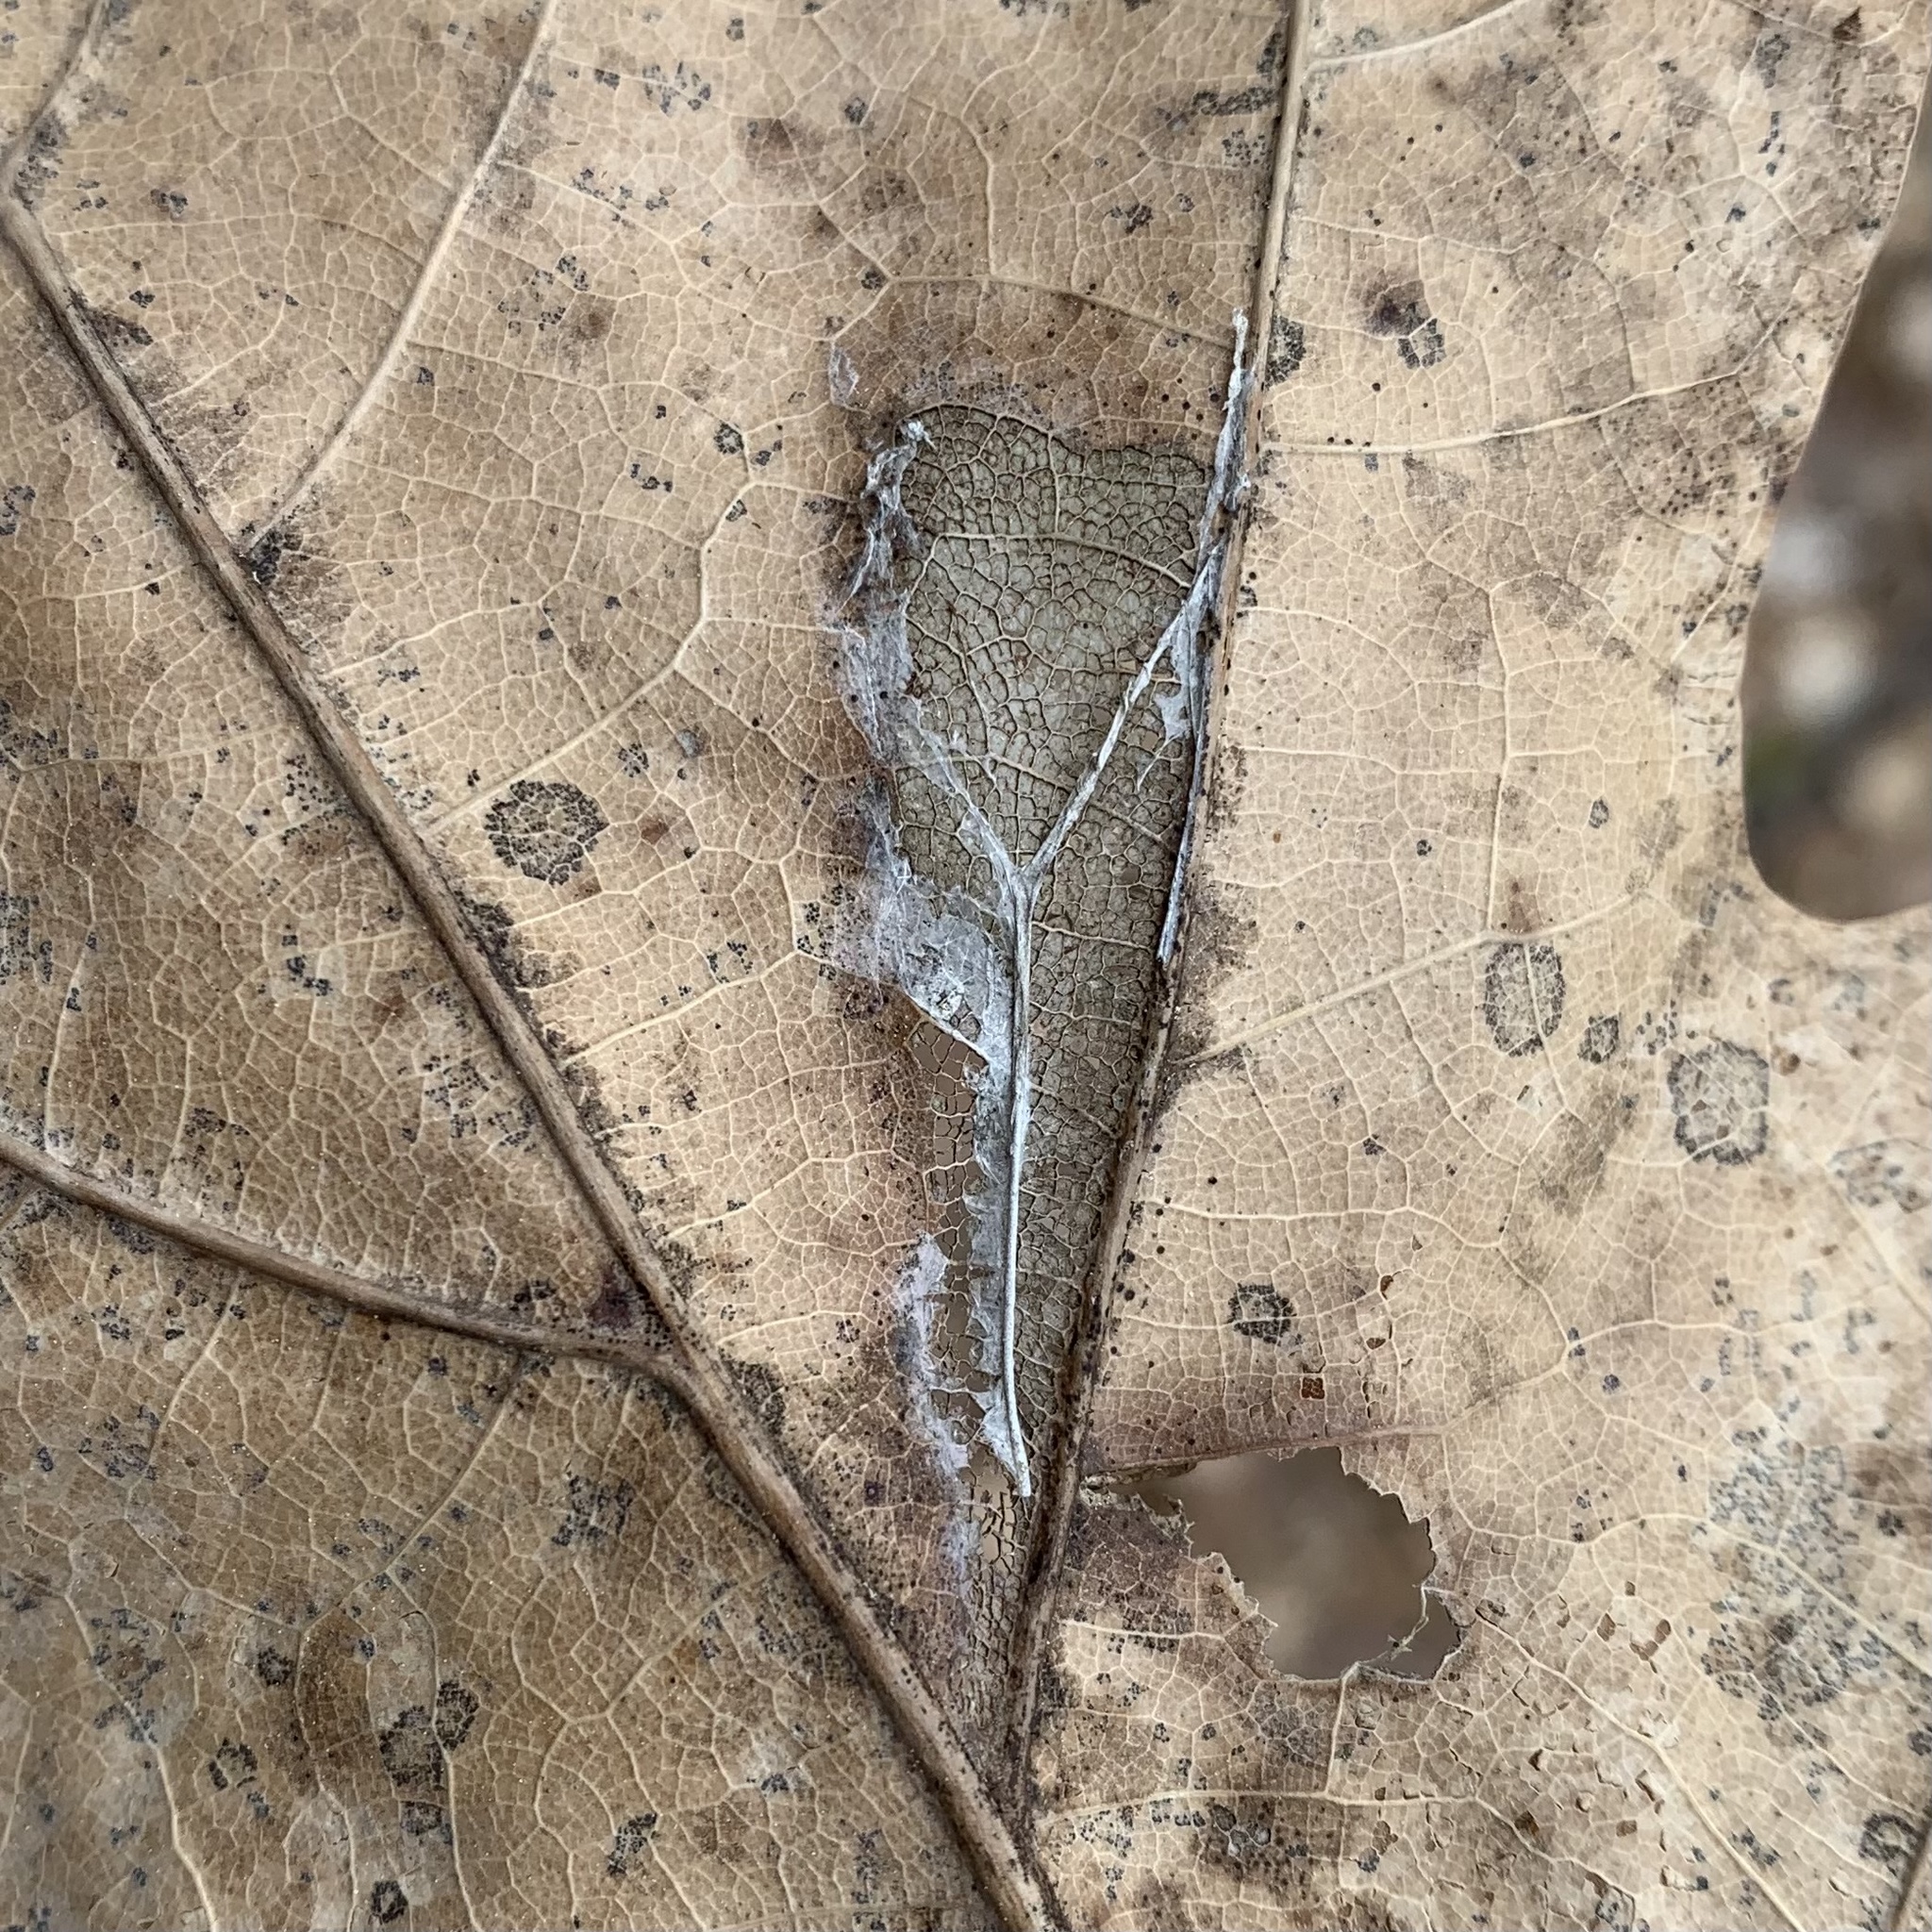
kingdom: Animalia
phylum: Arthropoda
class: Insecta
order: Lepidoptera
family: Tortricidae
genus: Catastega
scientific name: Catastega timidella
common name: Oak trumpet skeletonizer moth
